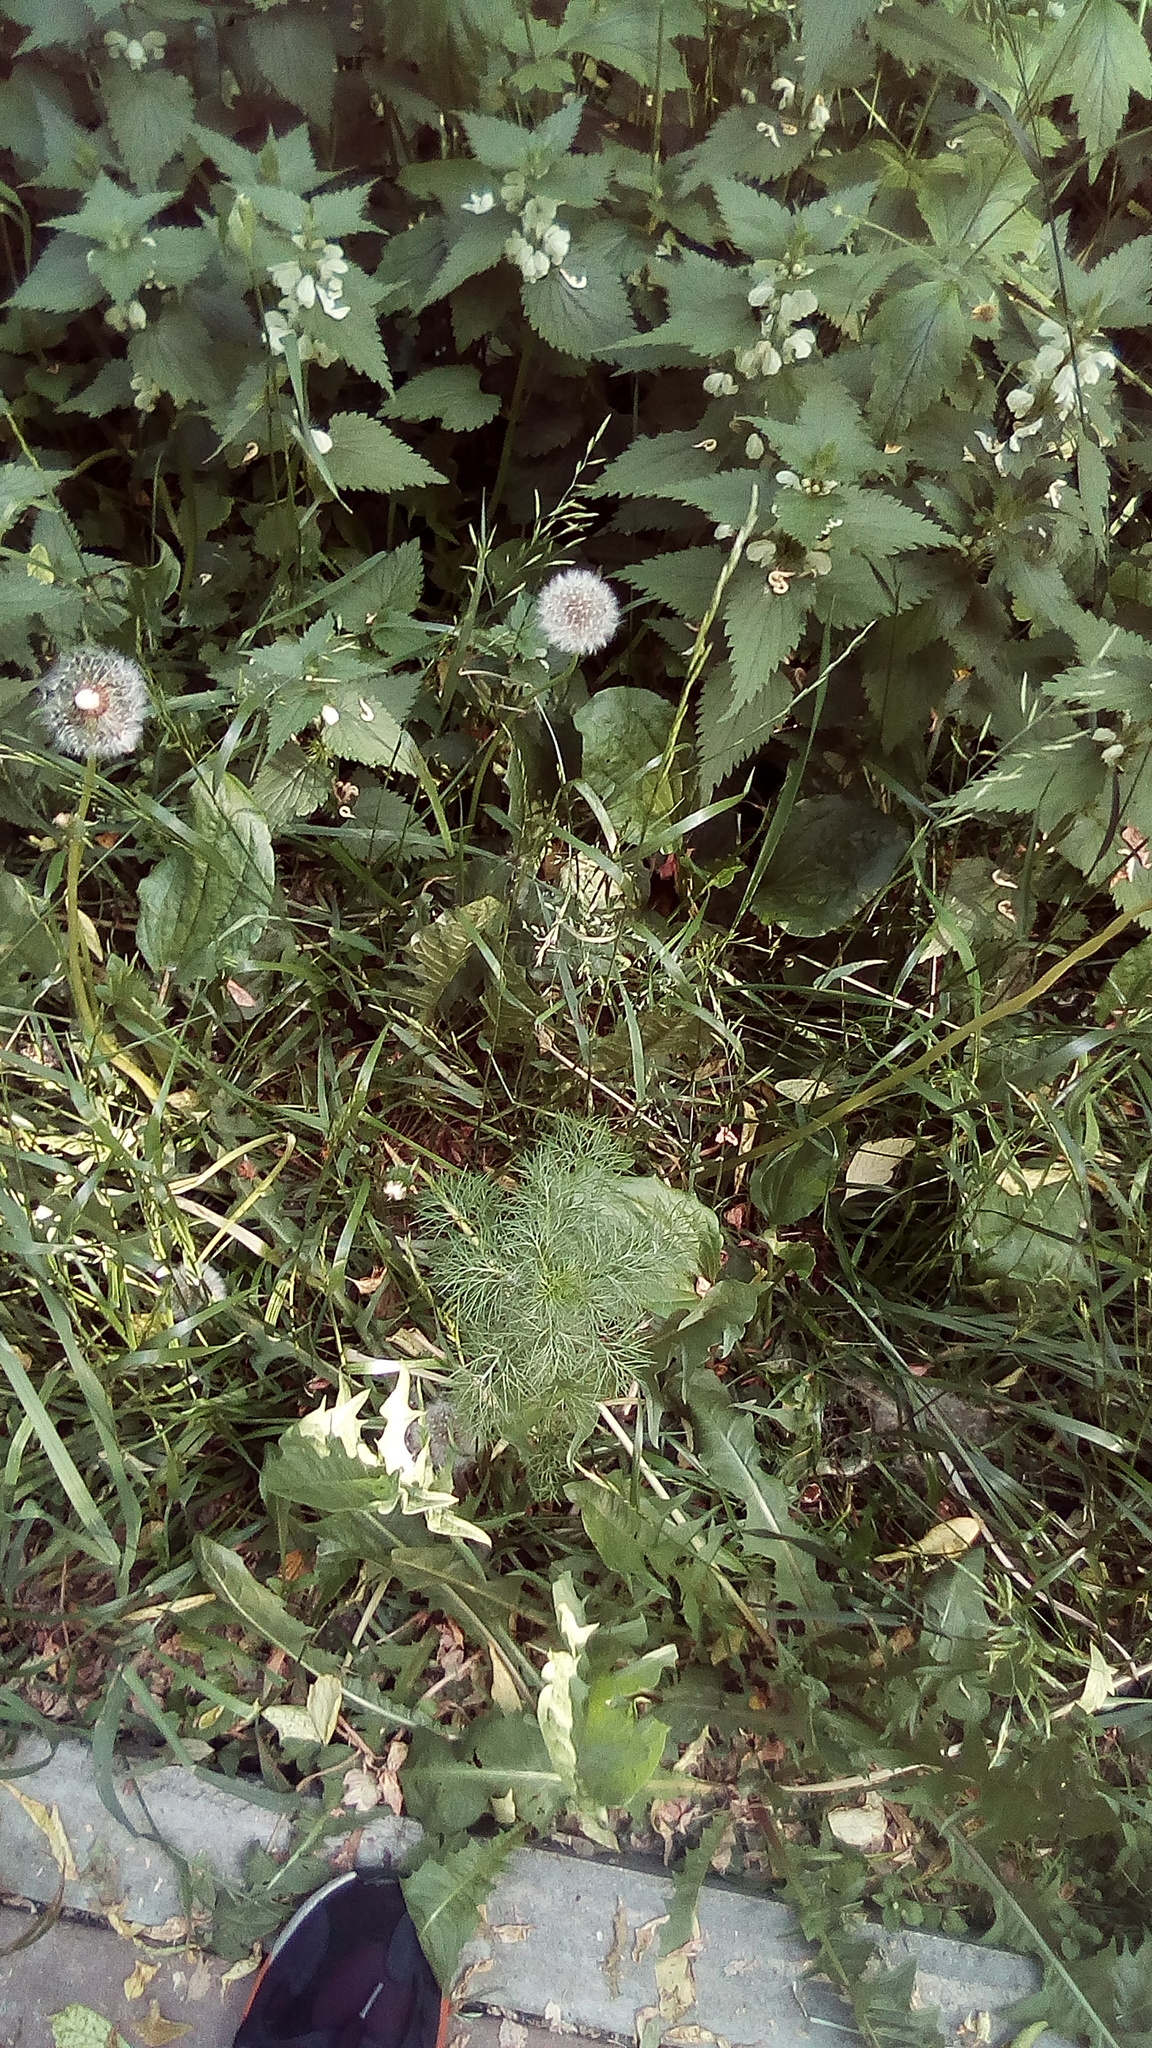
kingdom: Plantae
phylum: Tracheophyta
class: Magnoliopsida
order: Asterales
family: Asteraceae
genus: Tripleurospermum
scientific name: Tripleurospermum inodorum
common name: Scentless mayweed
